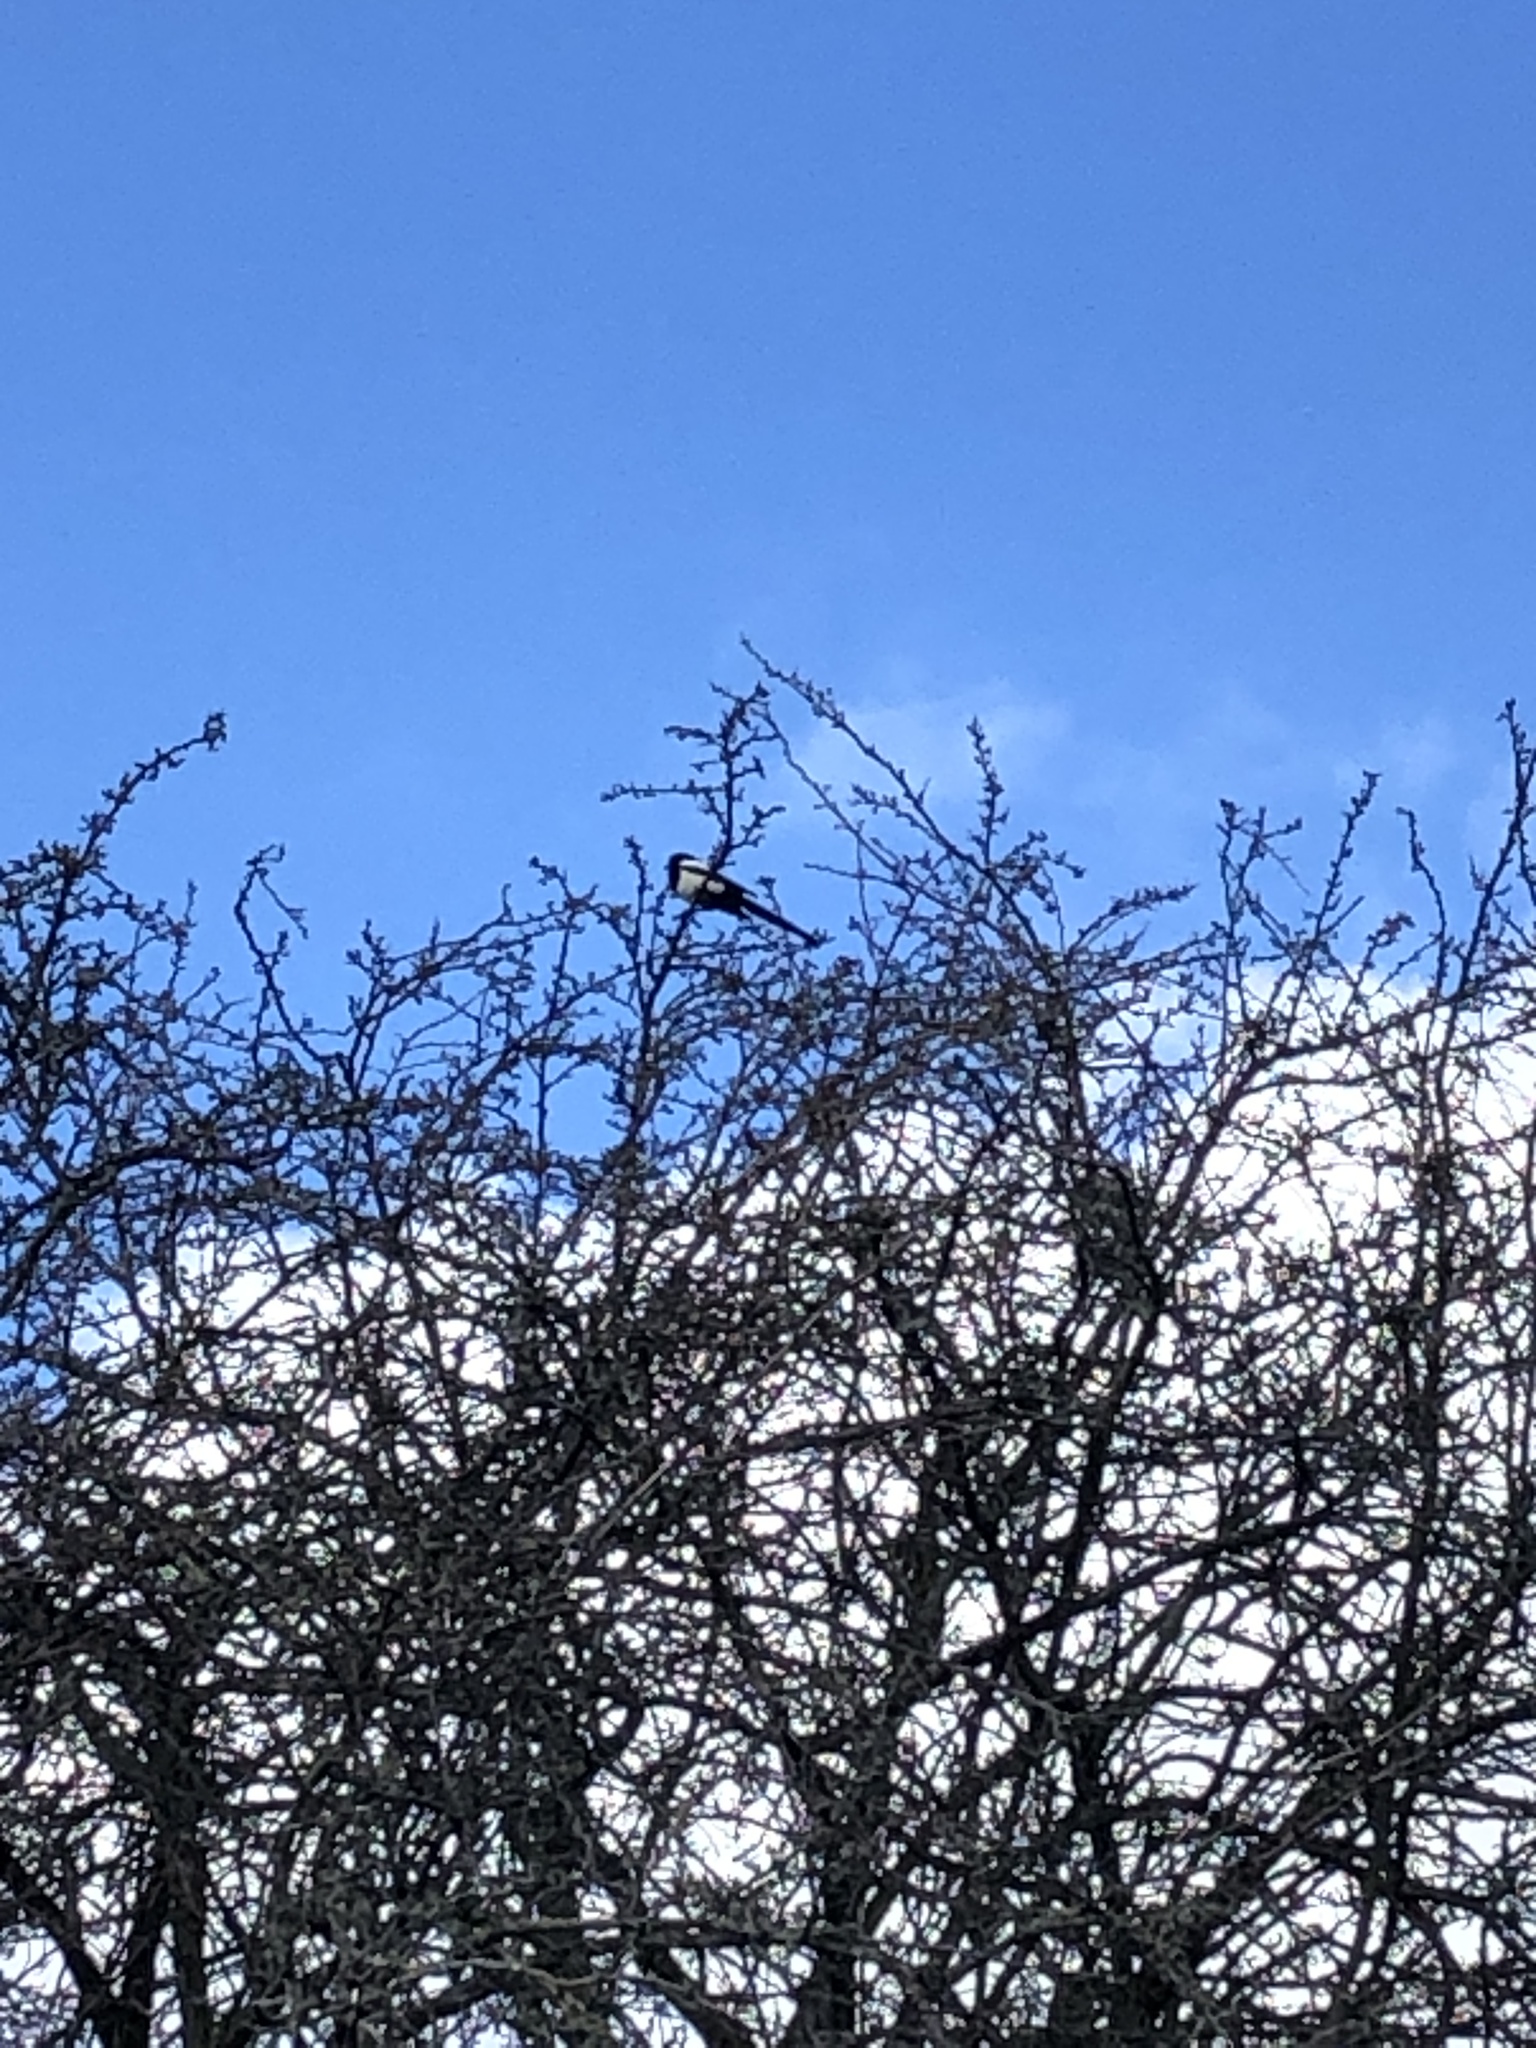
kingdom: Animalia
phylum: Chordata
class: Aves
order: Passeriformes
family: Corvidae
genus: Pica
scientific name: Pica pica
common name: Eurasian magpie
